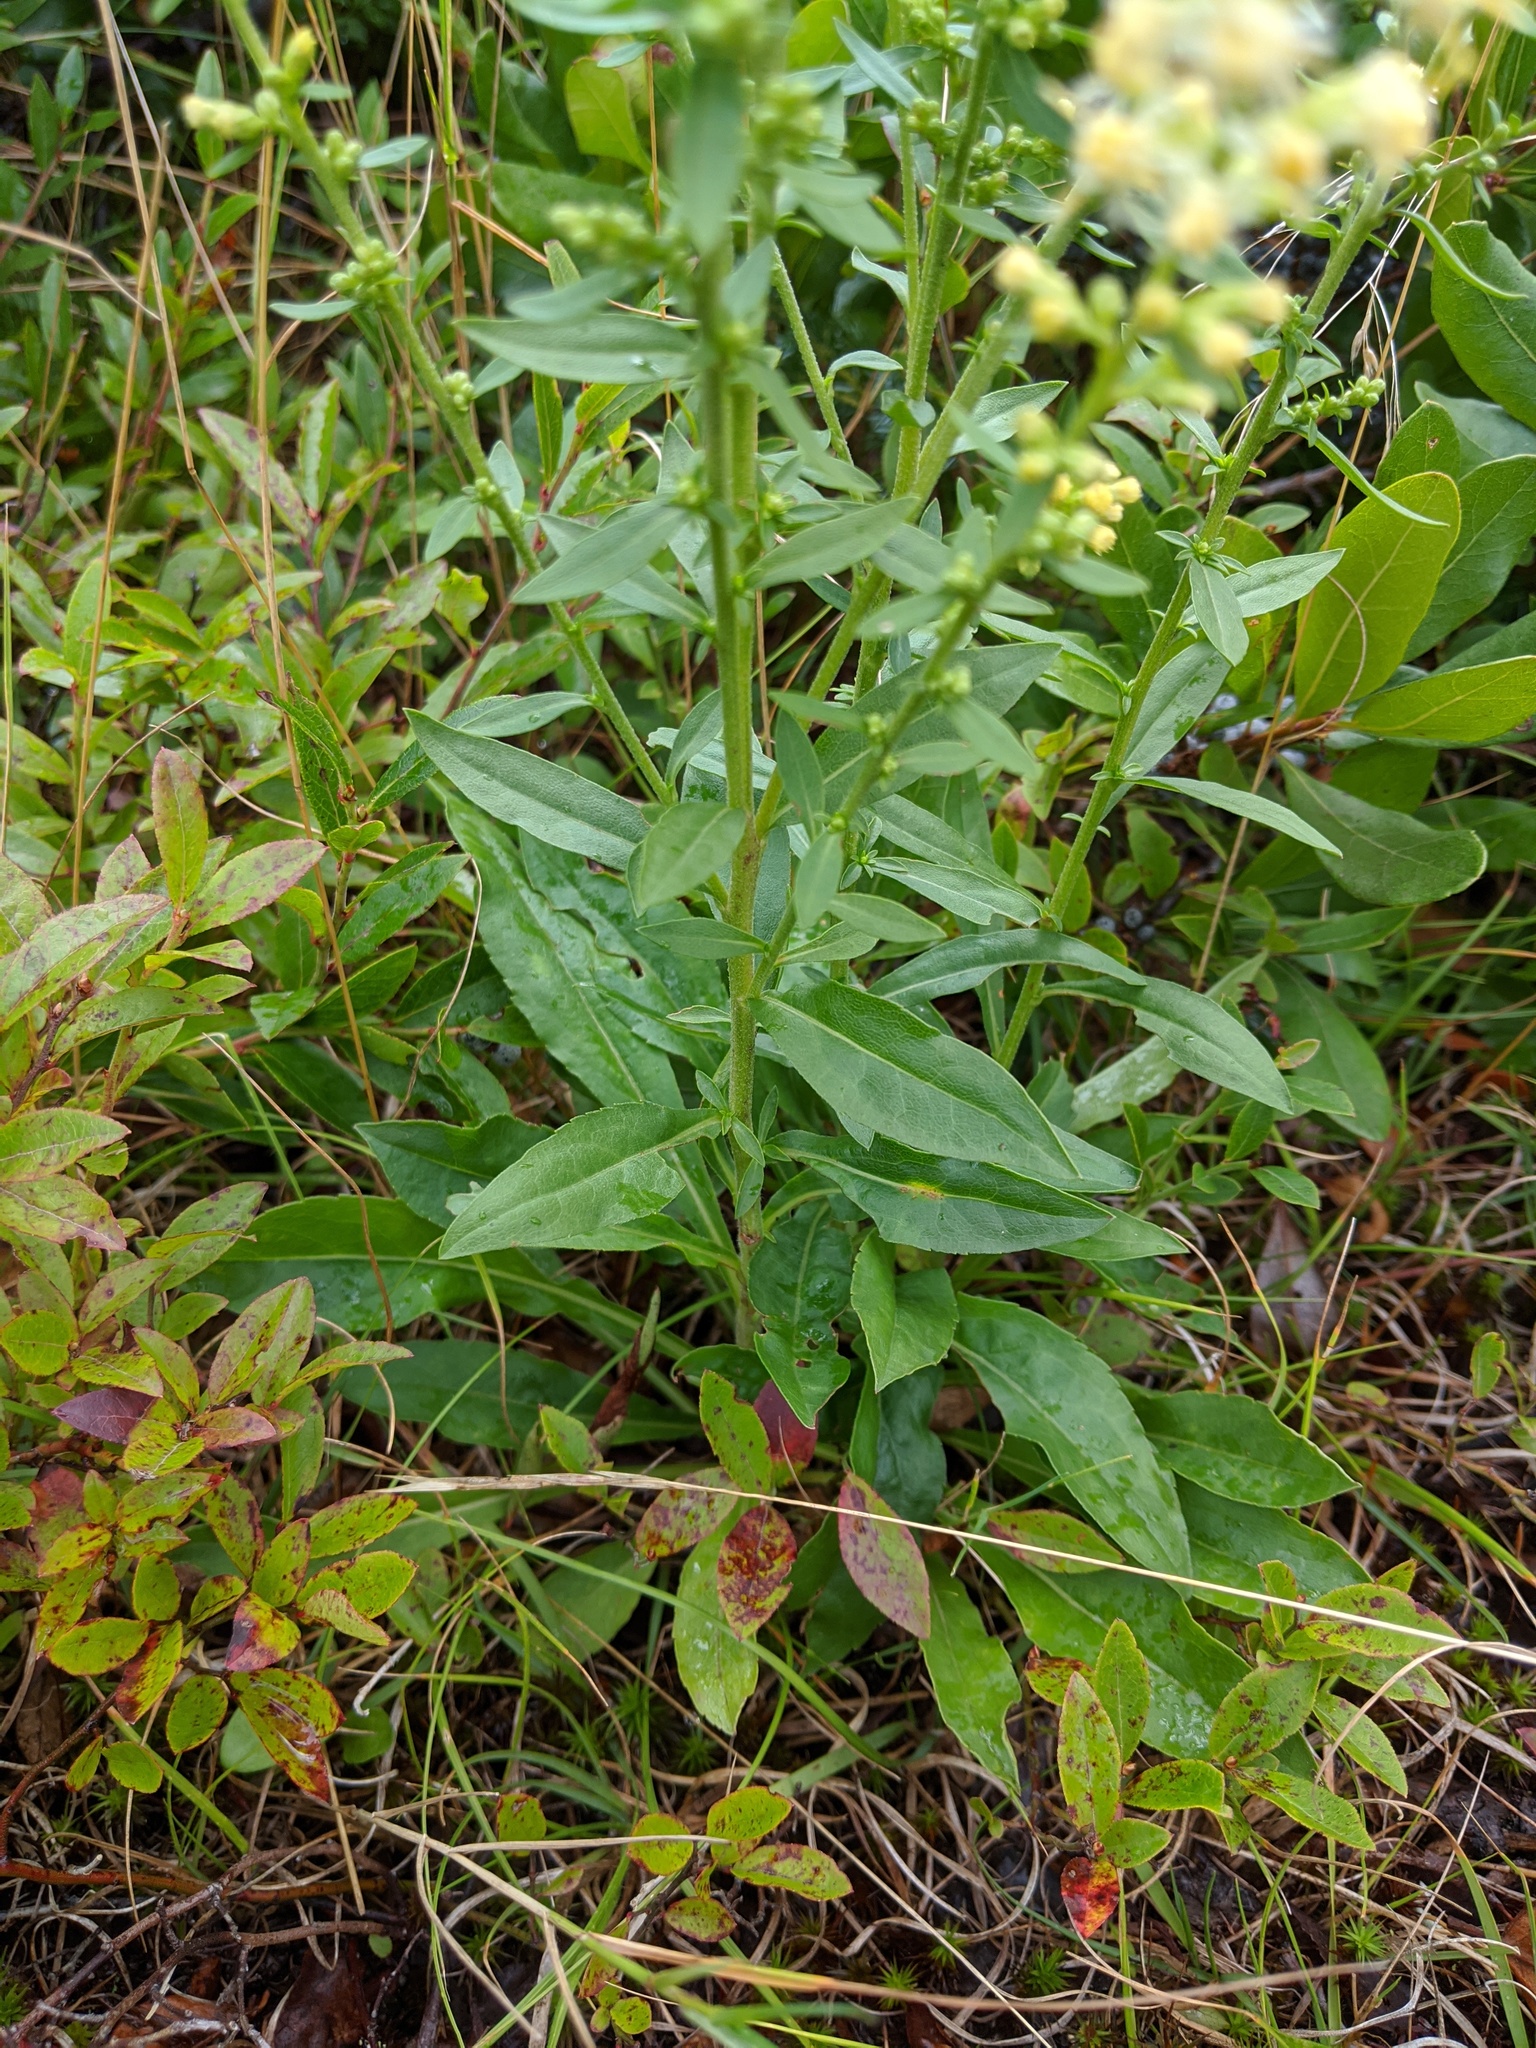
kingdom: Plantae
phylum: Tracheophyta
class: Magnoliopsida
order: Asterales
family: Asteraceae
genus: Solidago
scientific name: Solidago bicolor
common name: Silverrod
